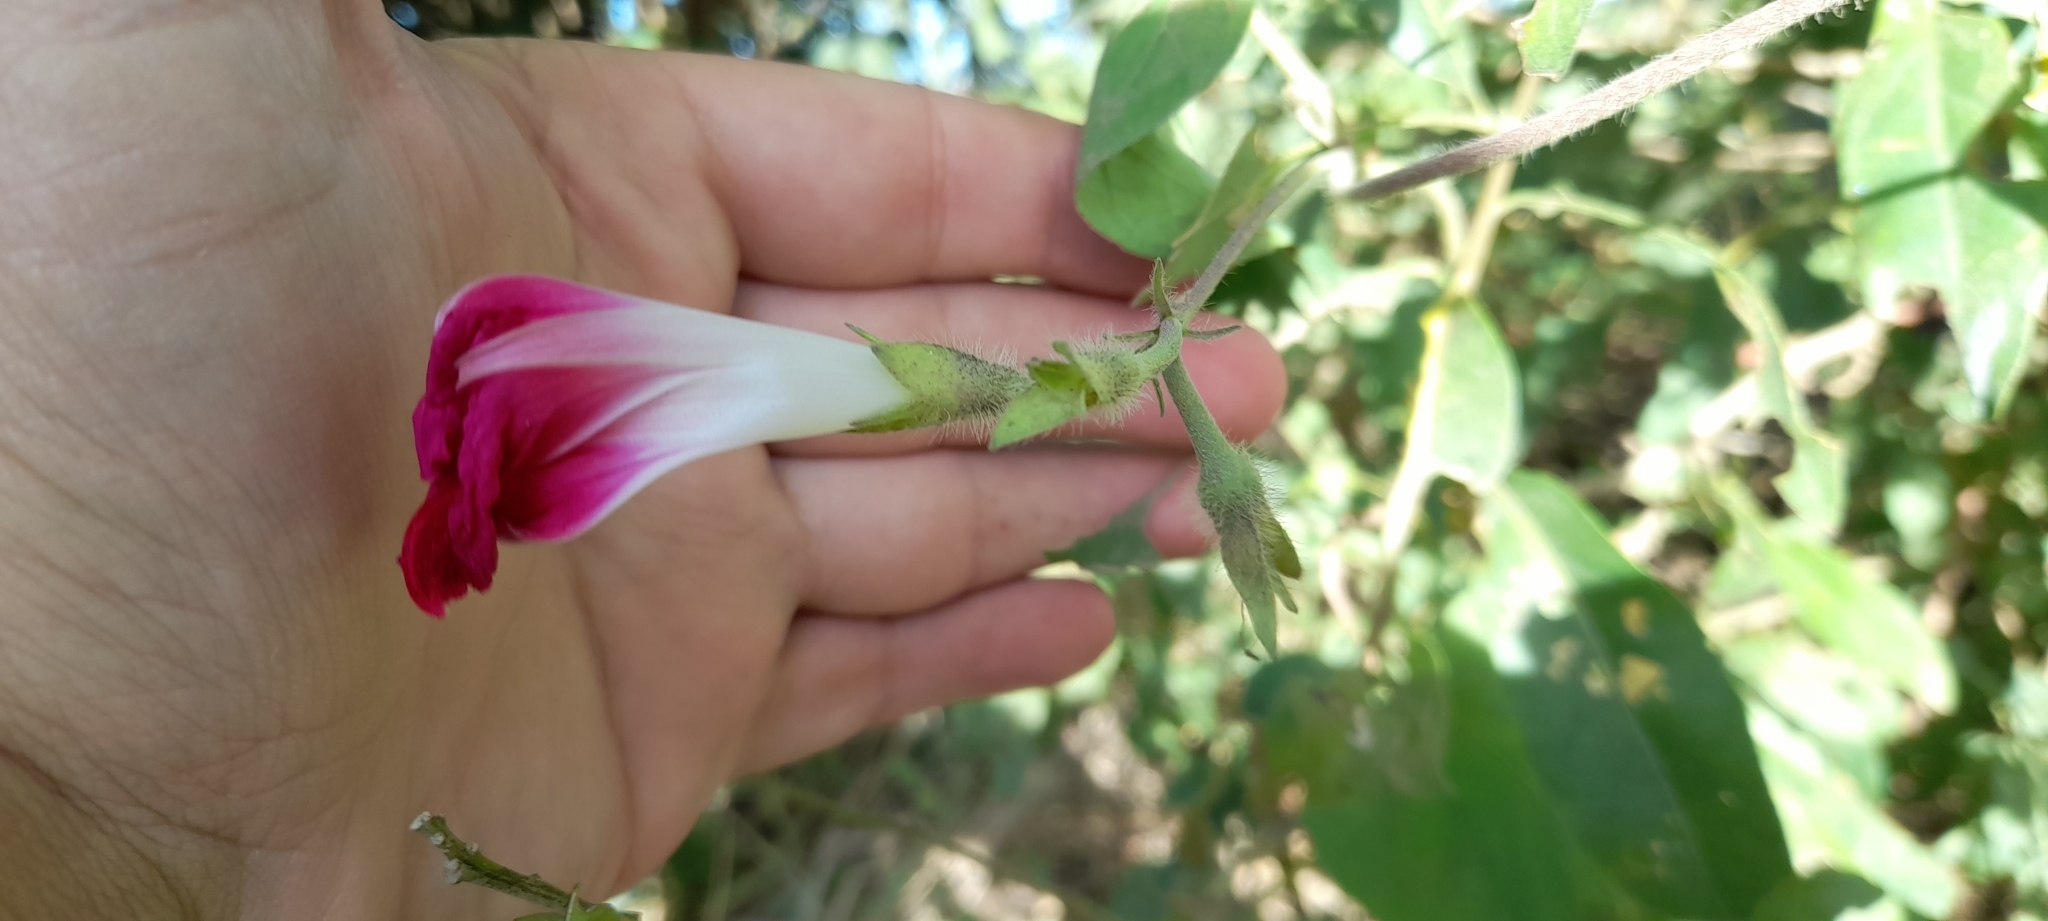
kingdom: Plantae
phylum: Tracheophyta
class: Magnoliopsida
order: Solanales
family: Convolvulaceae
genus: Ipomoea
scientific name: Ipomoea purpurea
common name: Common morning-glory
